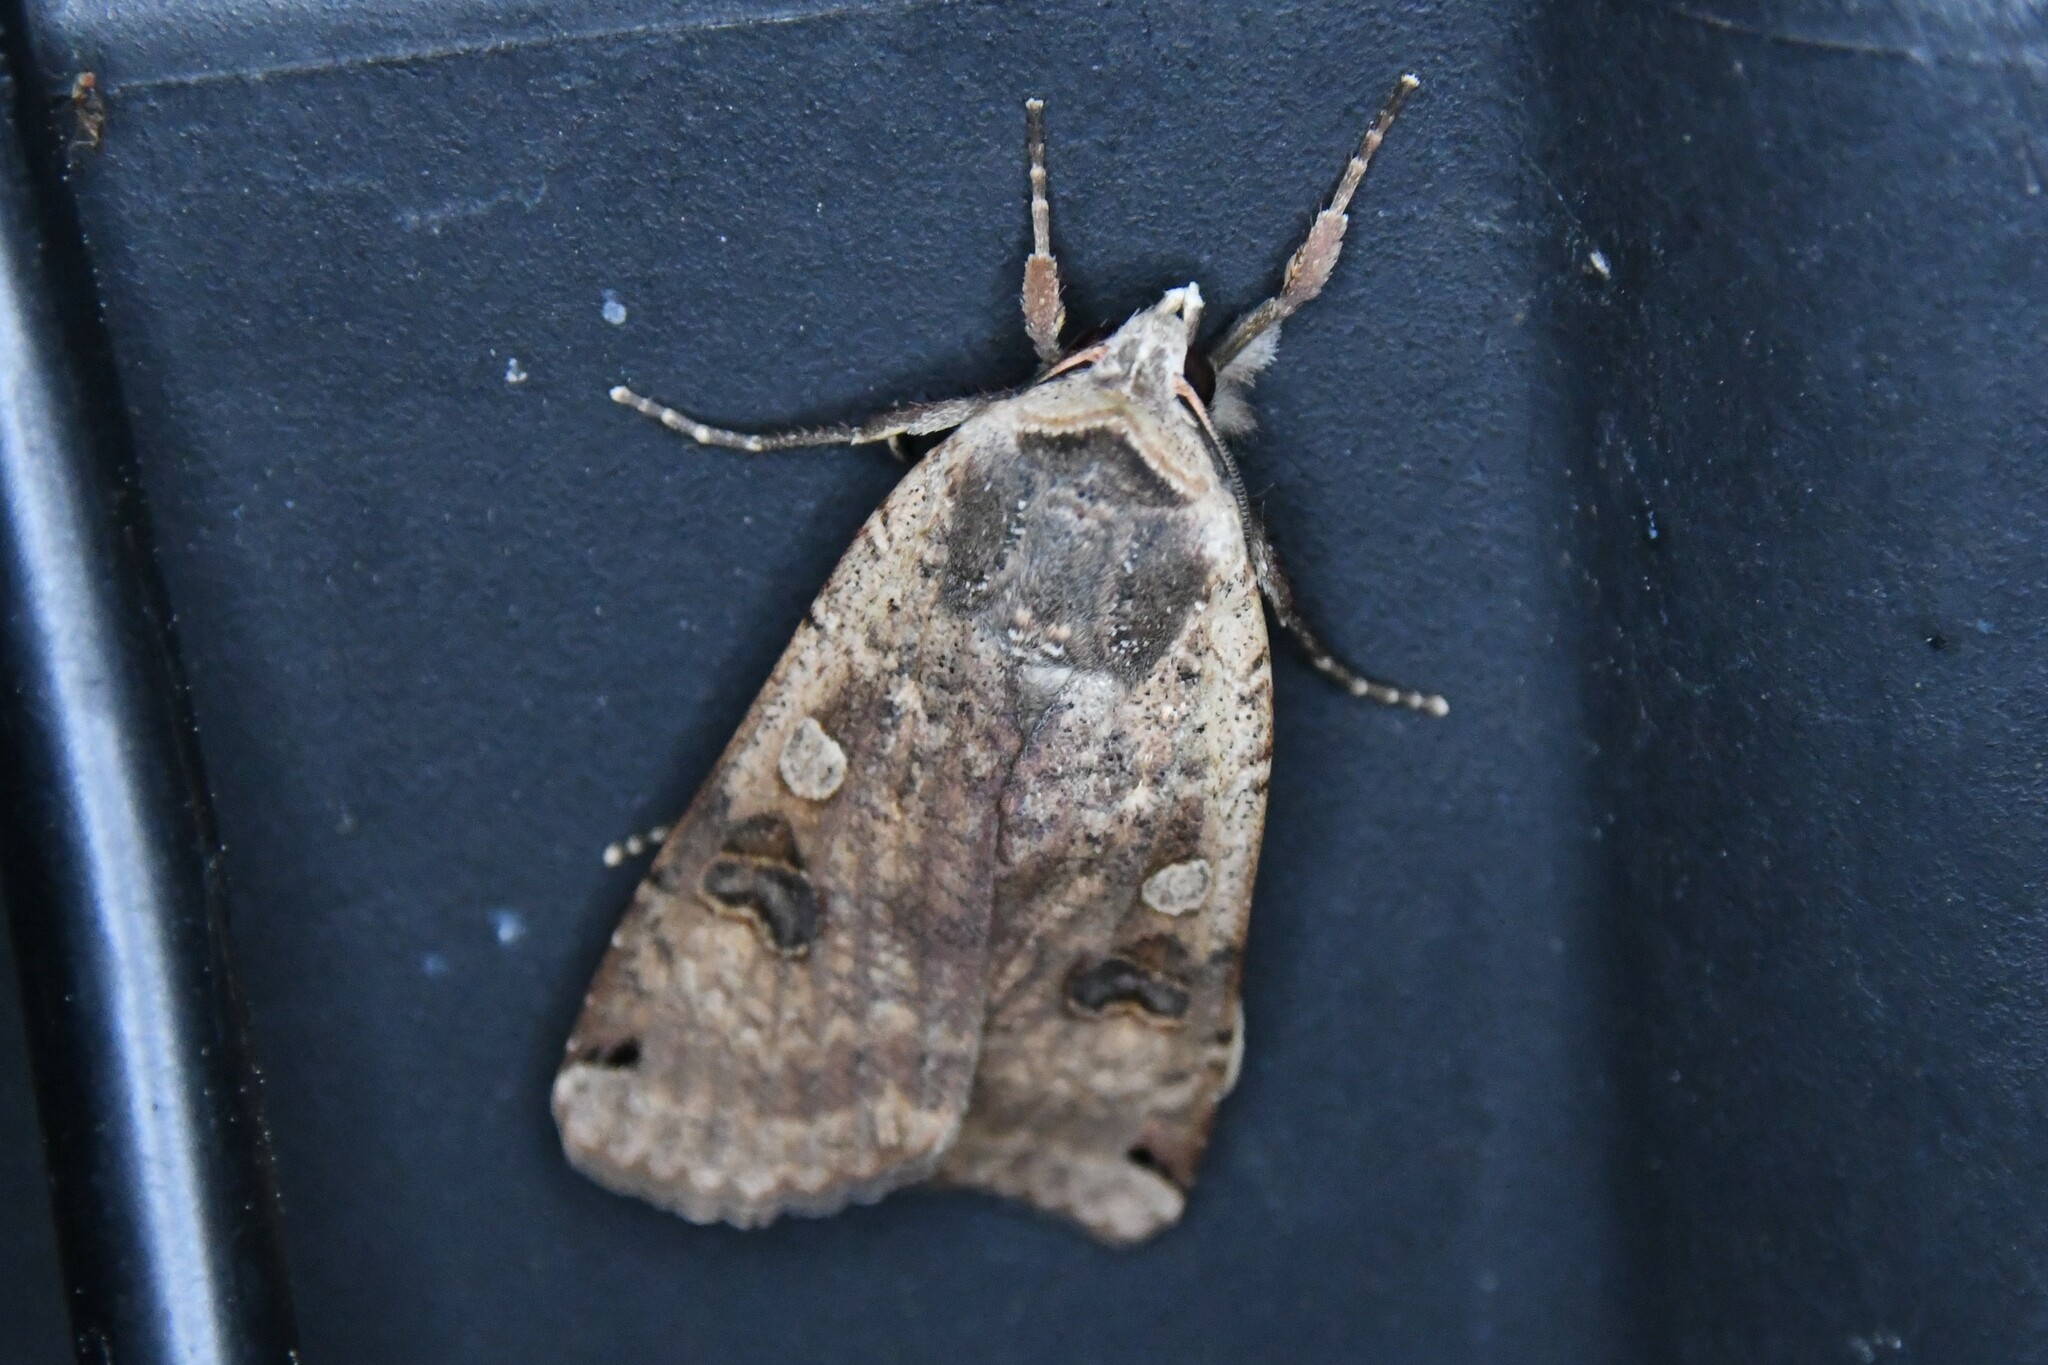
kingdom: Animalia
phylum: Arthropoda
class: Insecta
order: Lepidoptera
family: Noctuidae
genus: Noctua
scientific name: Noctua pronuba
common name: Large yellow underwing
